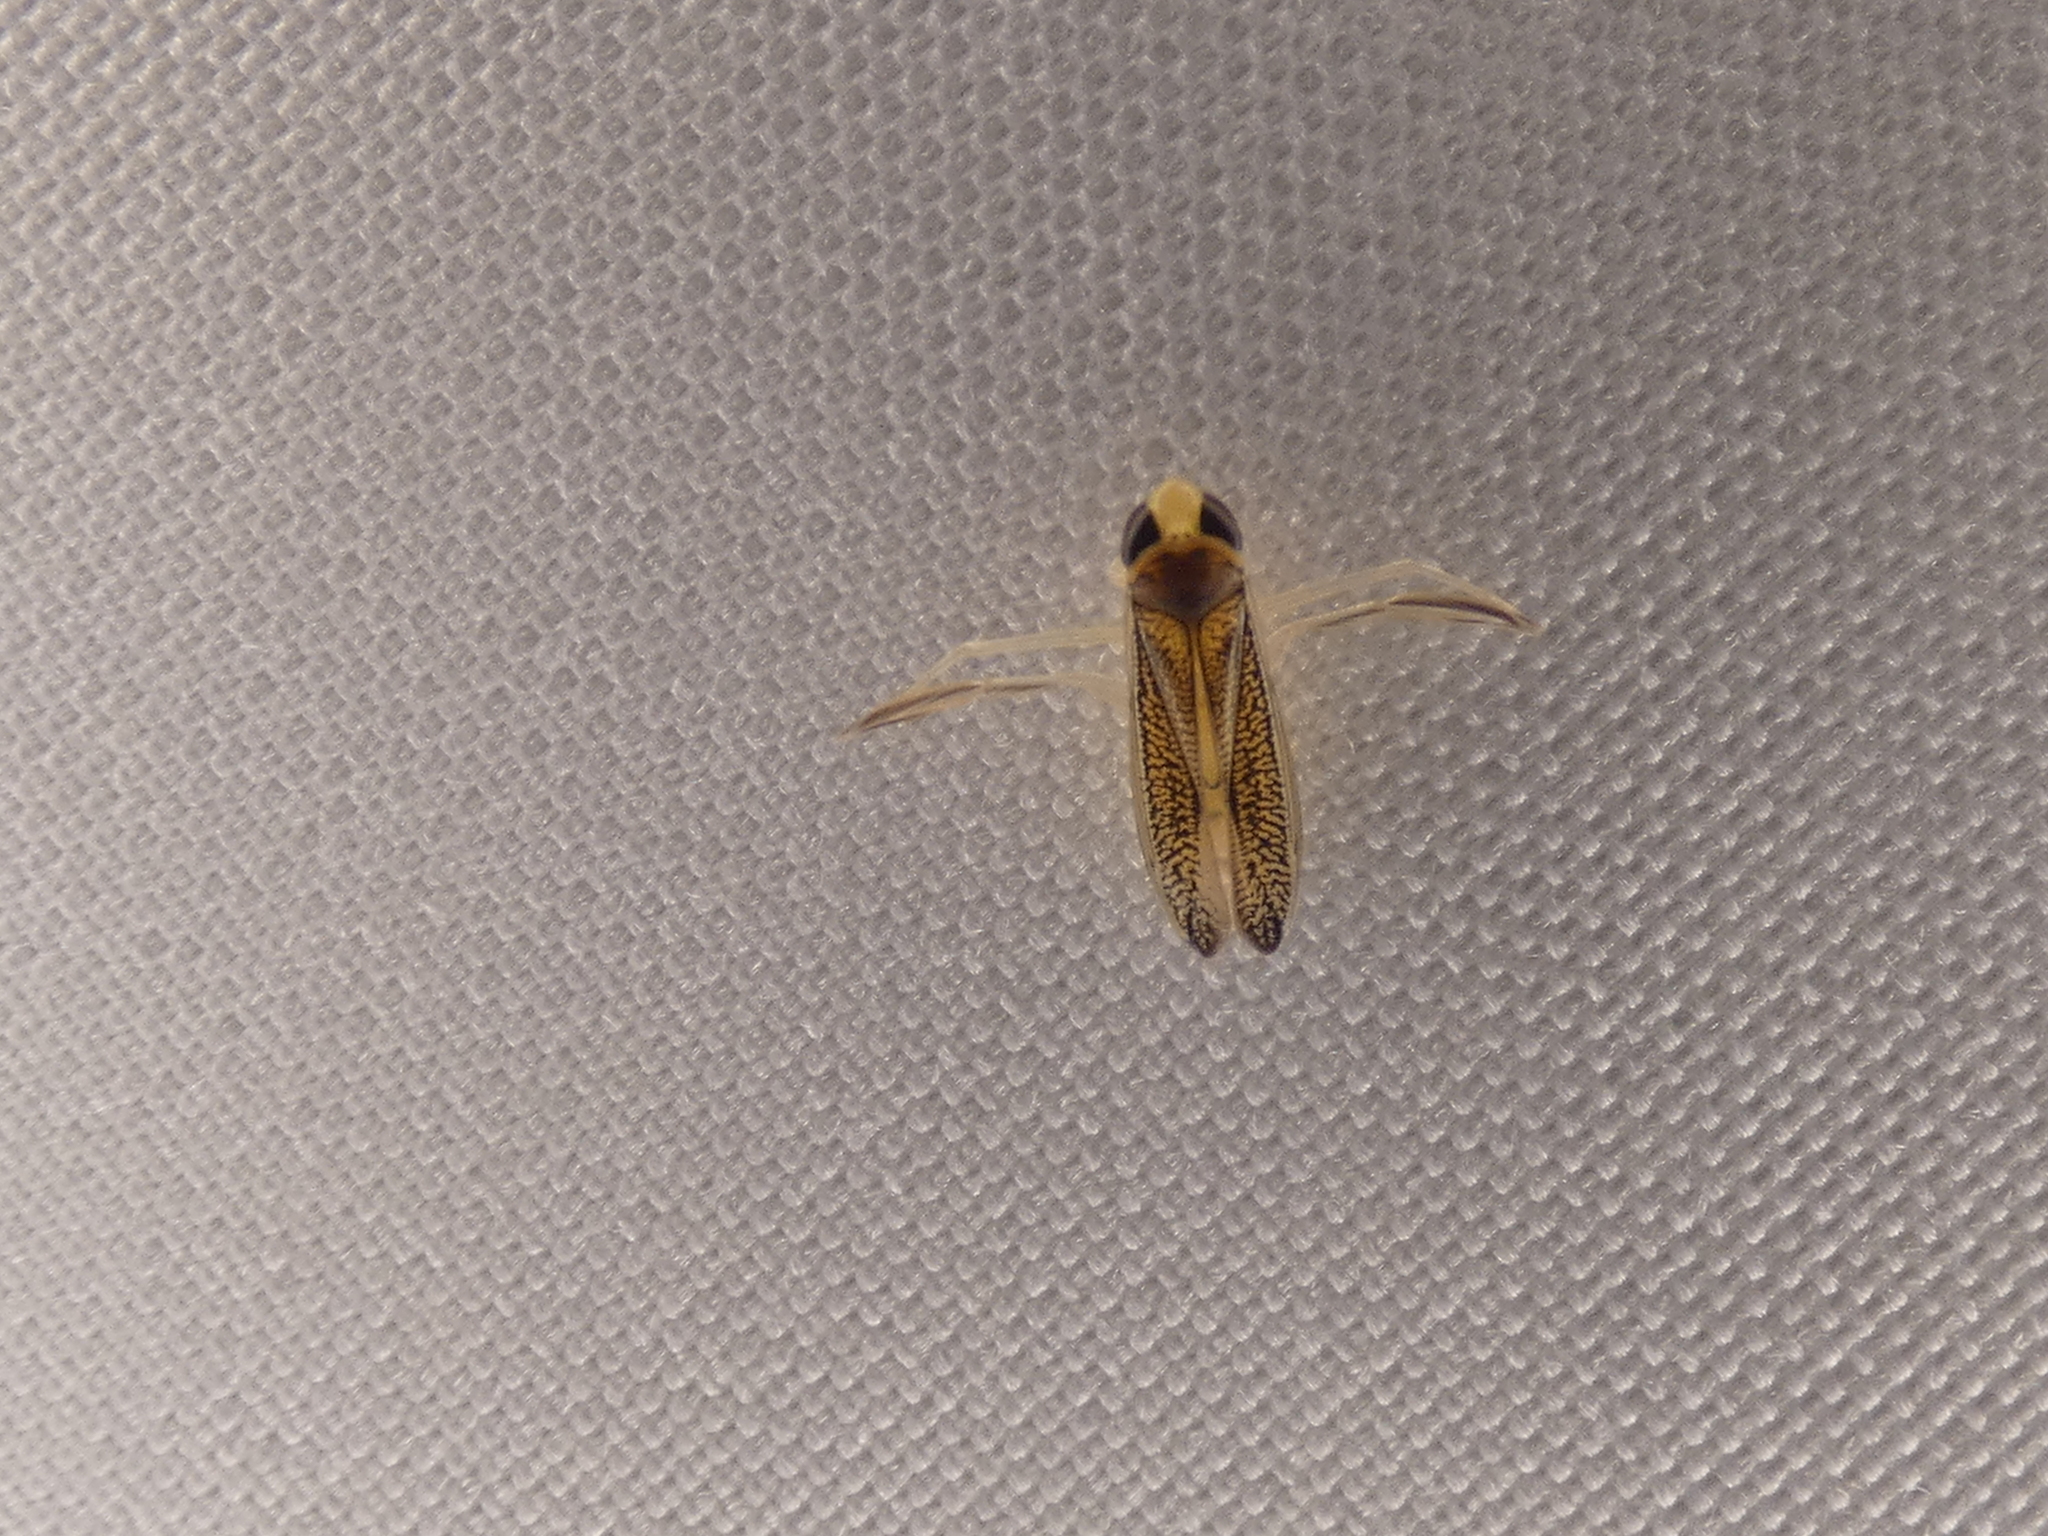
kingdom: Animalia
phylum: Arthropoda
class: Insecta
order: Hemiptera
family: Corixidae
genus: Palmacorixa
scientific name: Palmacorixa
